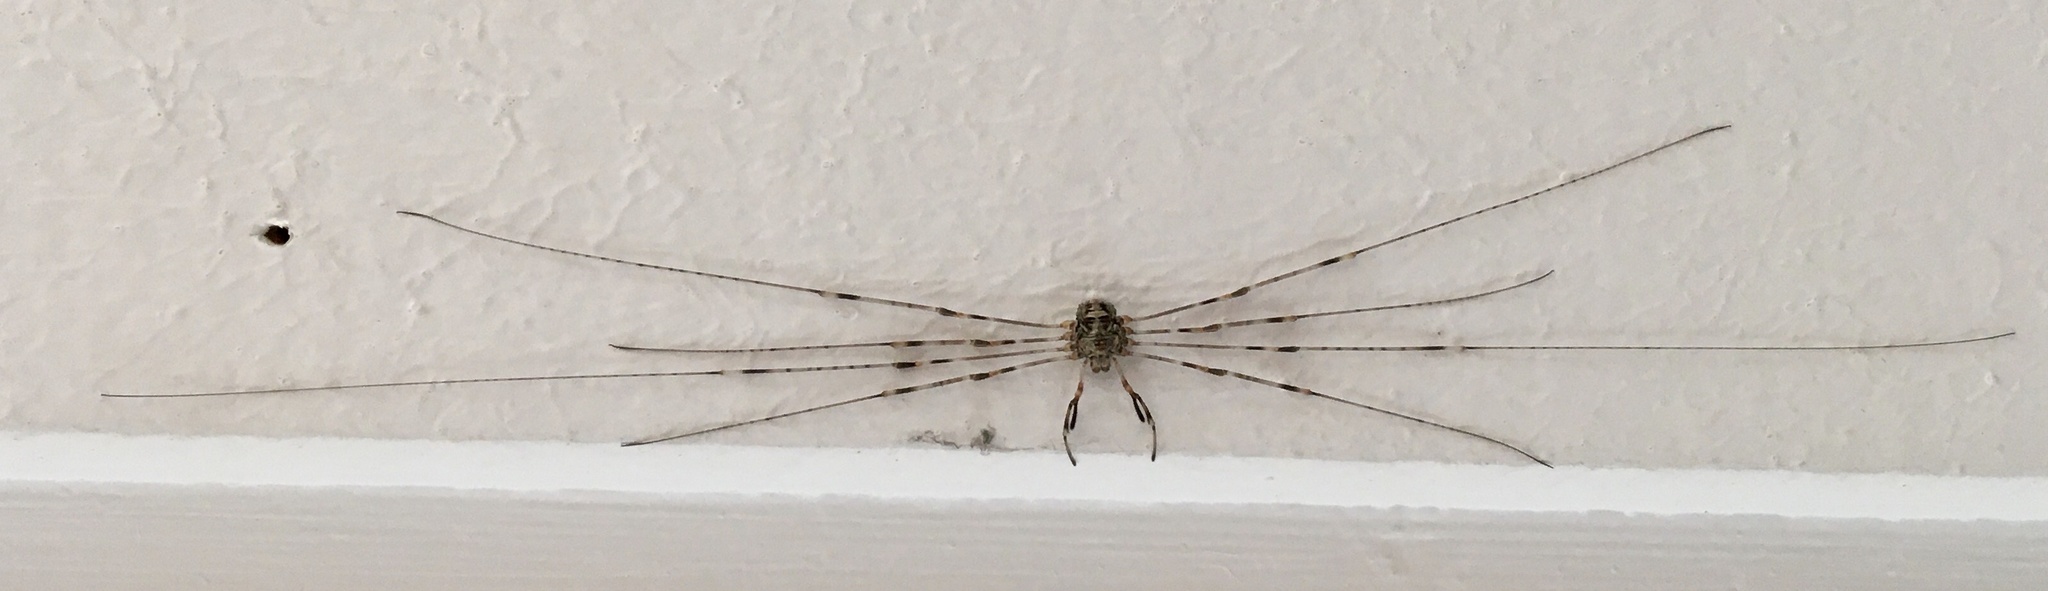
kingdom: Animalia
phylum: Arthropoda
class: Arachnida
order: Opiliones
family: Phalangiidae
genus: Dicranopalpus
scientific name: Dicranopalpus ramosus
